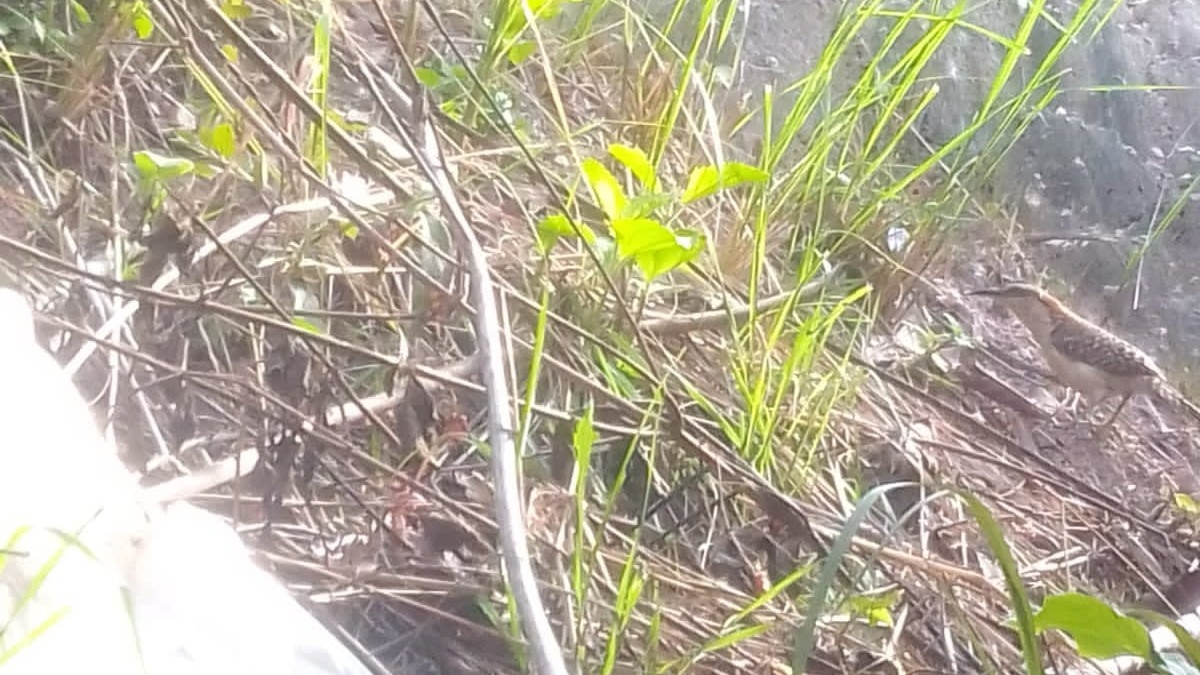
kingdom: Animalia
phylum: Chordata
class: Aves
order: Passeriformes
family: Troglodytidae
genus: Campylorhynchus
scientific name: Campylorhynchus rufinucha
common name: Rufous-naped wren
